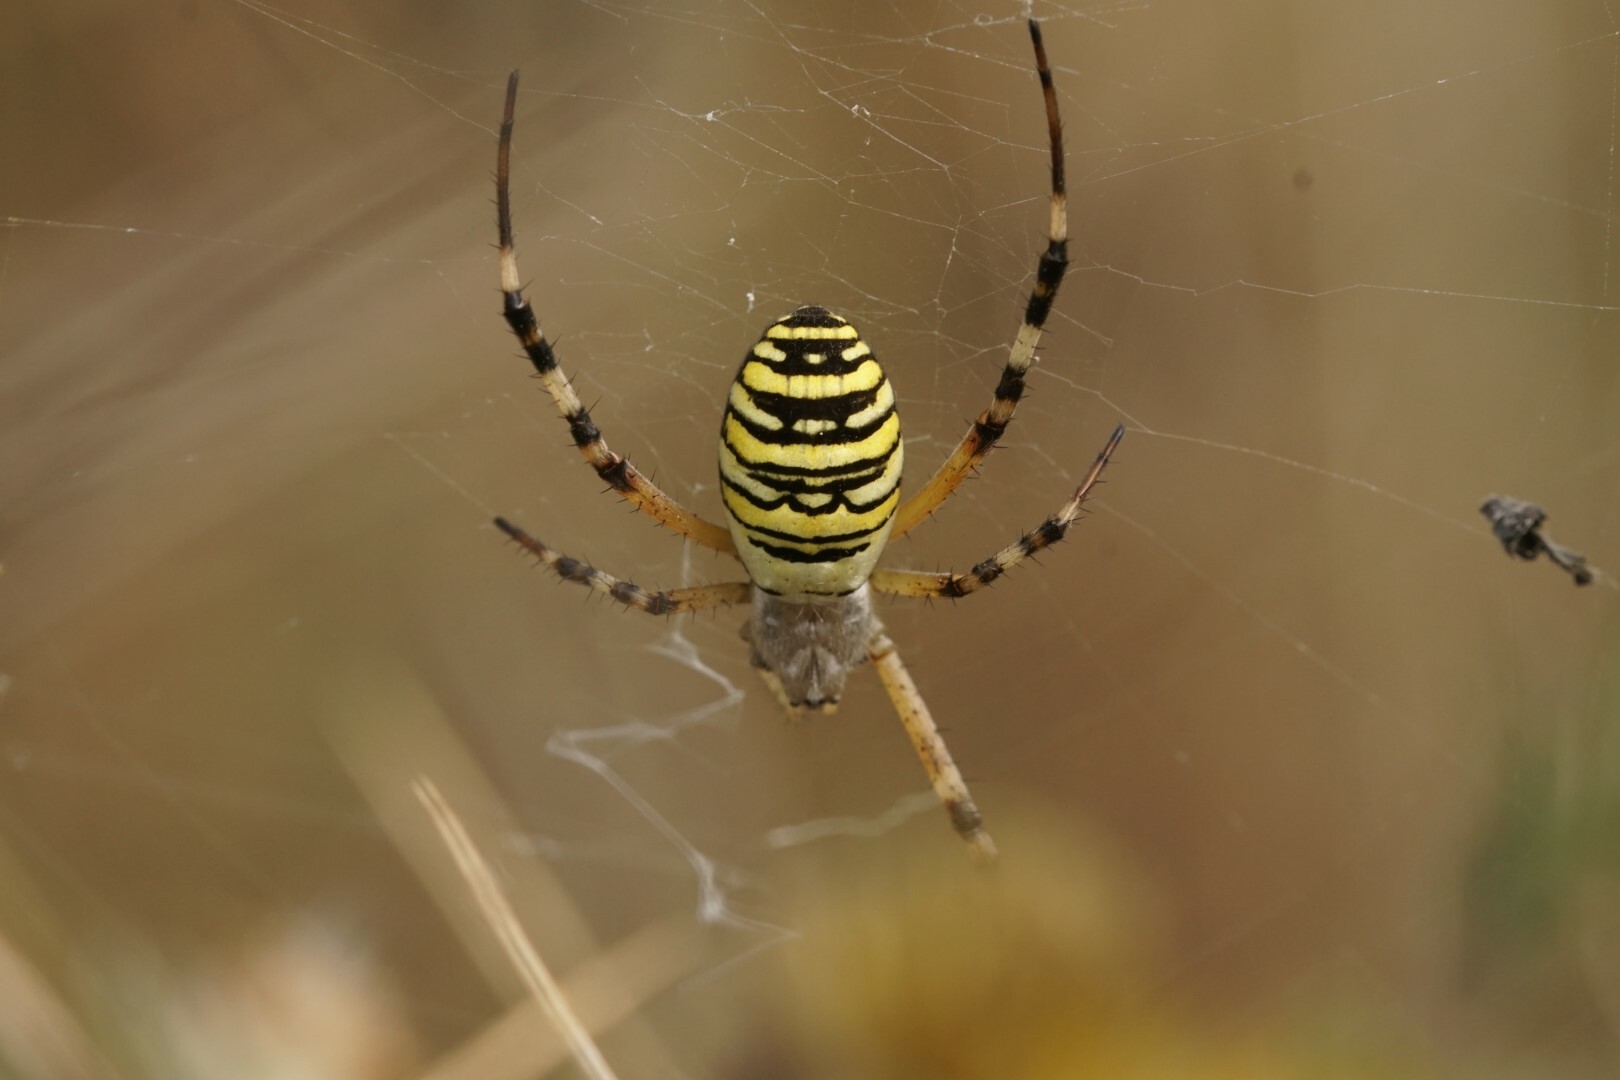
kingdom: Animalia
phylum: Arthropoda
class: Arachnida
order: Araneae
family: Araneidae
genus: Argiope
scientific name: Argiope bruennichi
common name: Wasp spider
